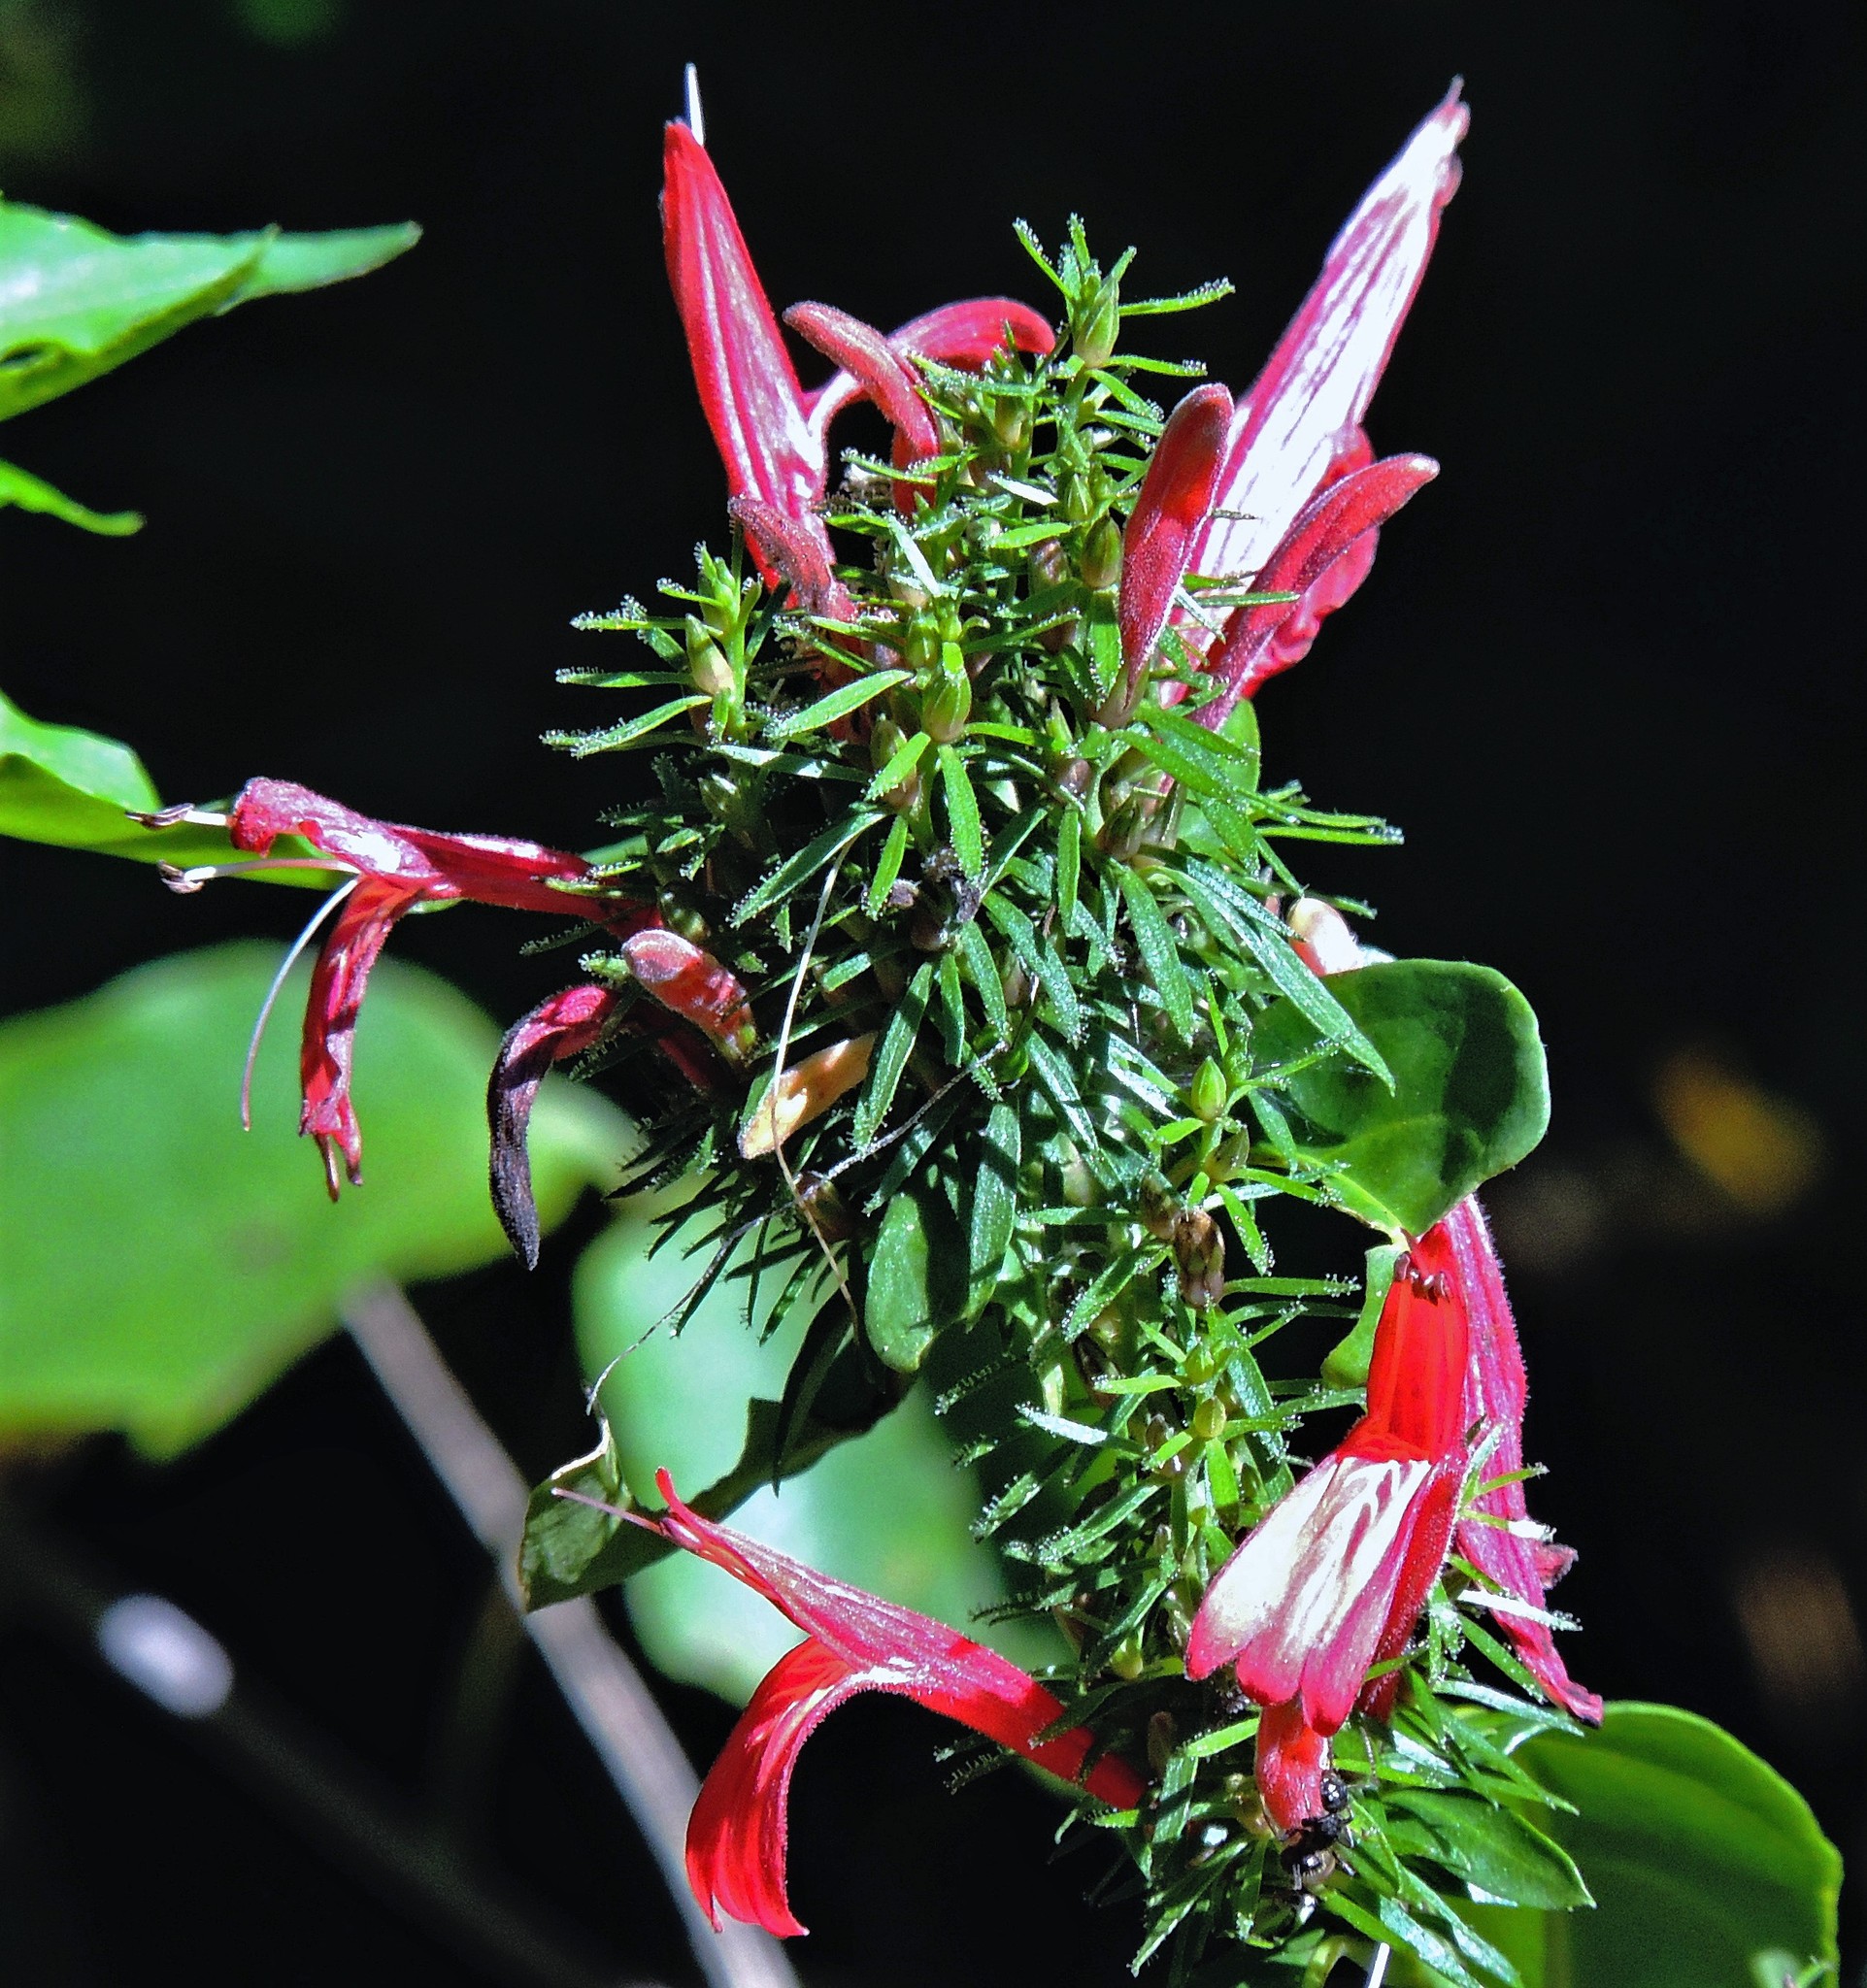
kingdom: Plantae
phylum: Tracheophyta
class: Magnoliopsida
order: Lamiales
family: Acanthaceae
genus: Justicia
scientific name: Justicia brasiliana
